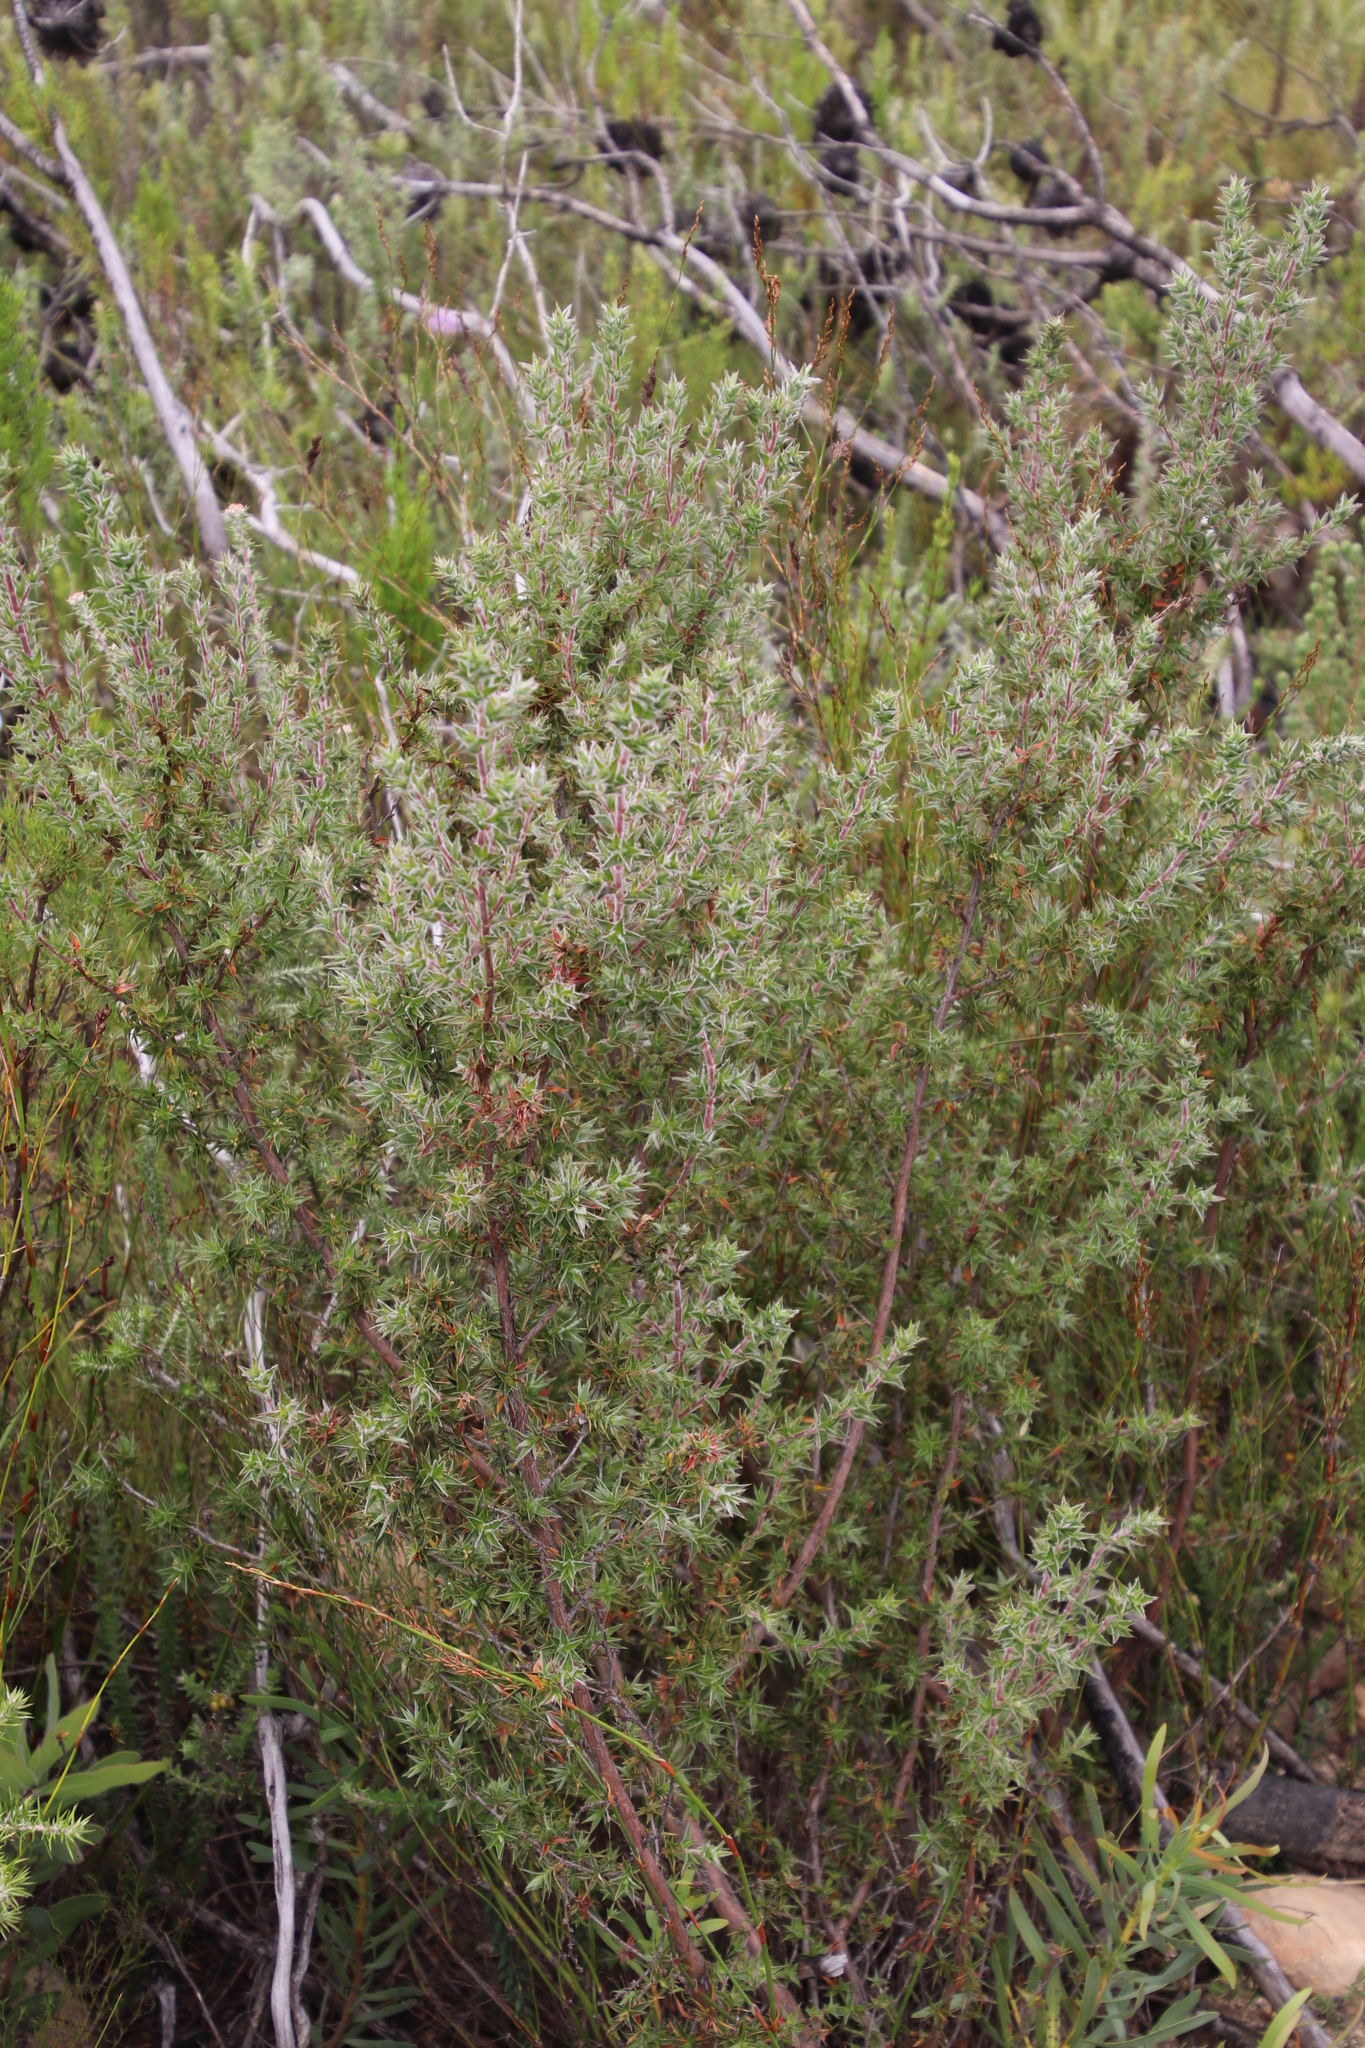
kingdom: Plantae
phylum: Tracheophyta
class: Magnoliopsida
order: Rosales
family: Rosaceae
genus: Cliffortia
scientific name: Cliffortia ruscifolia
